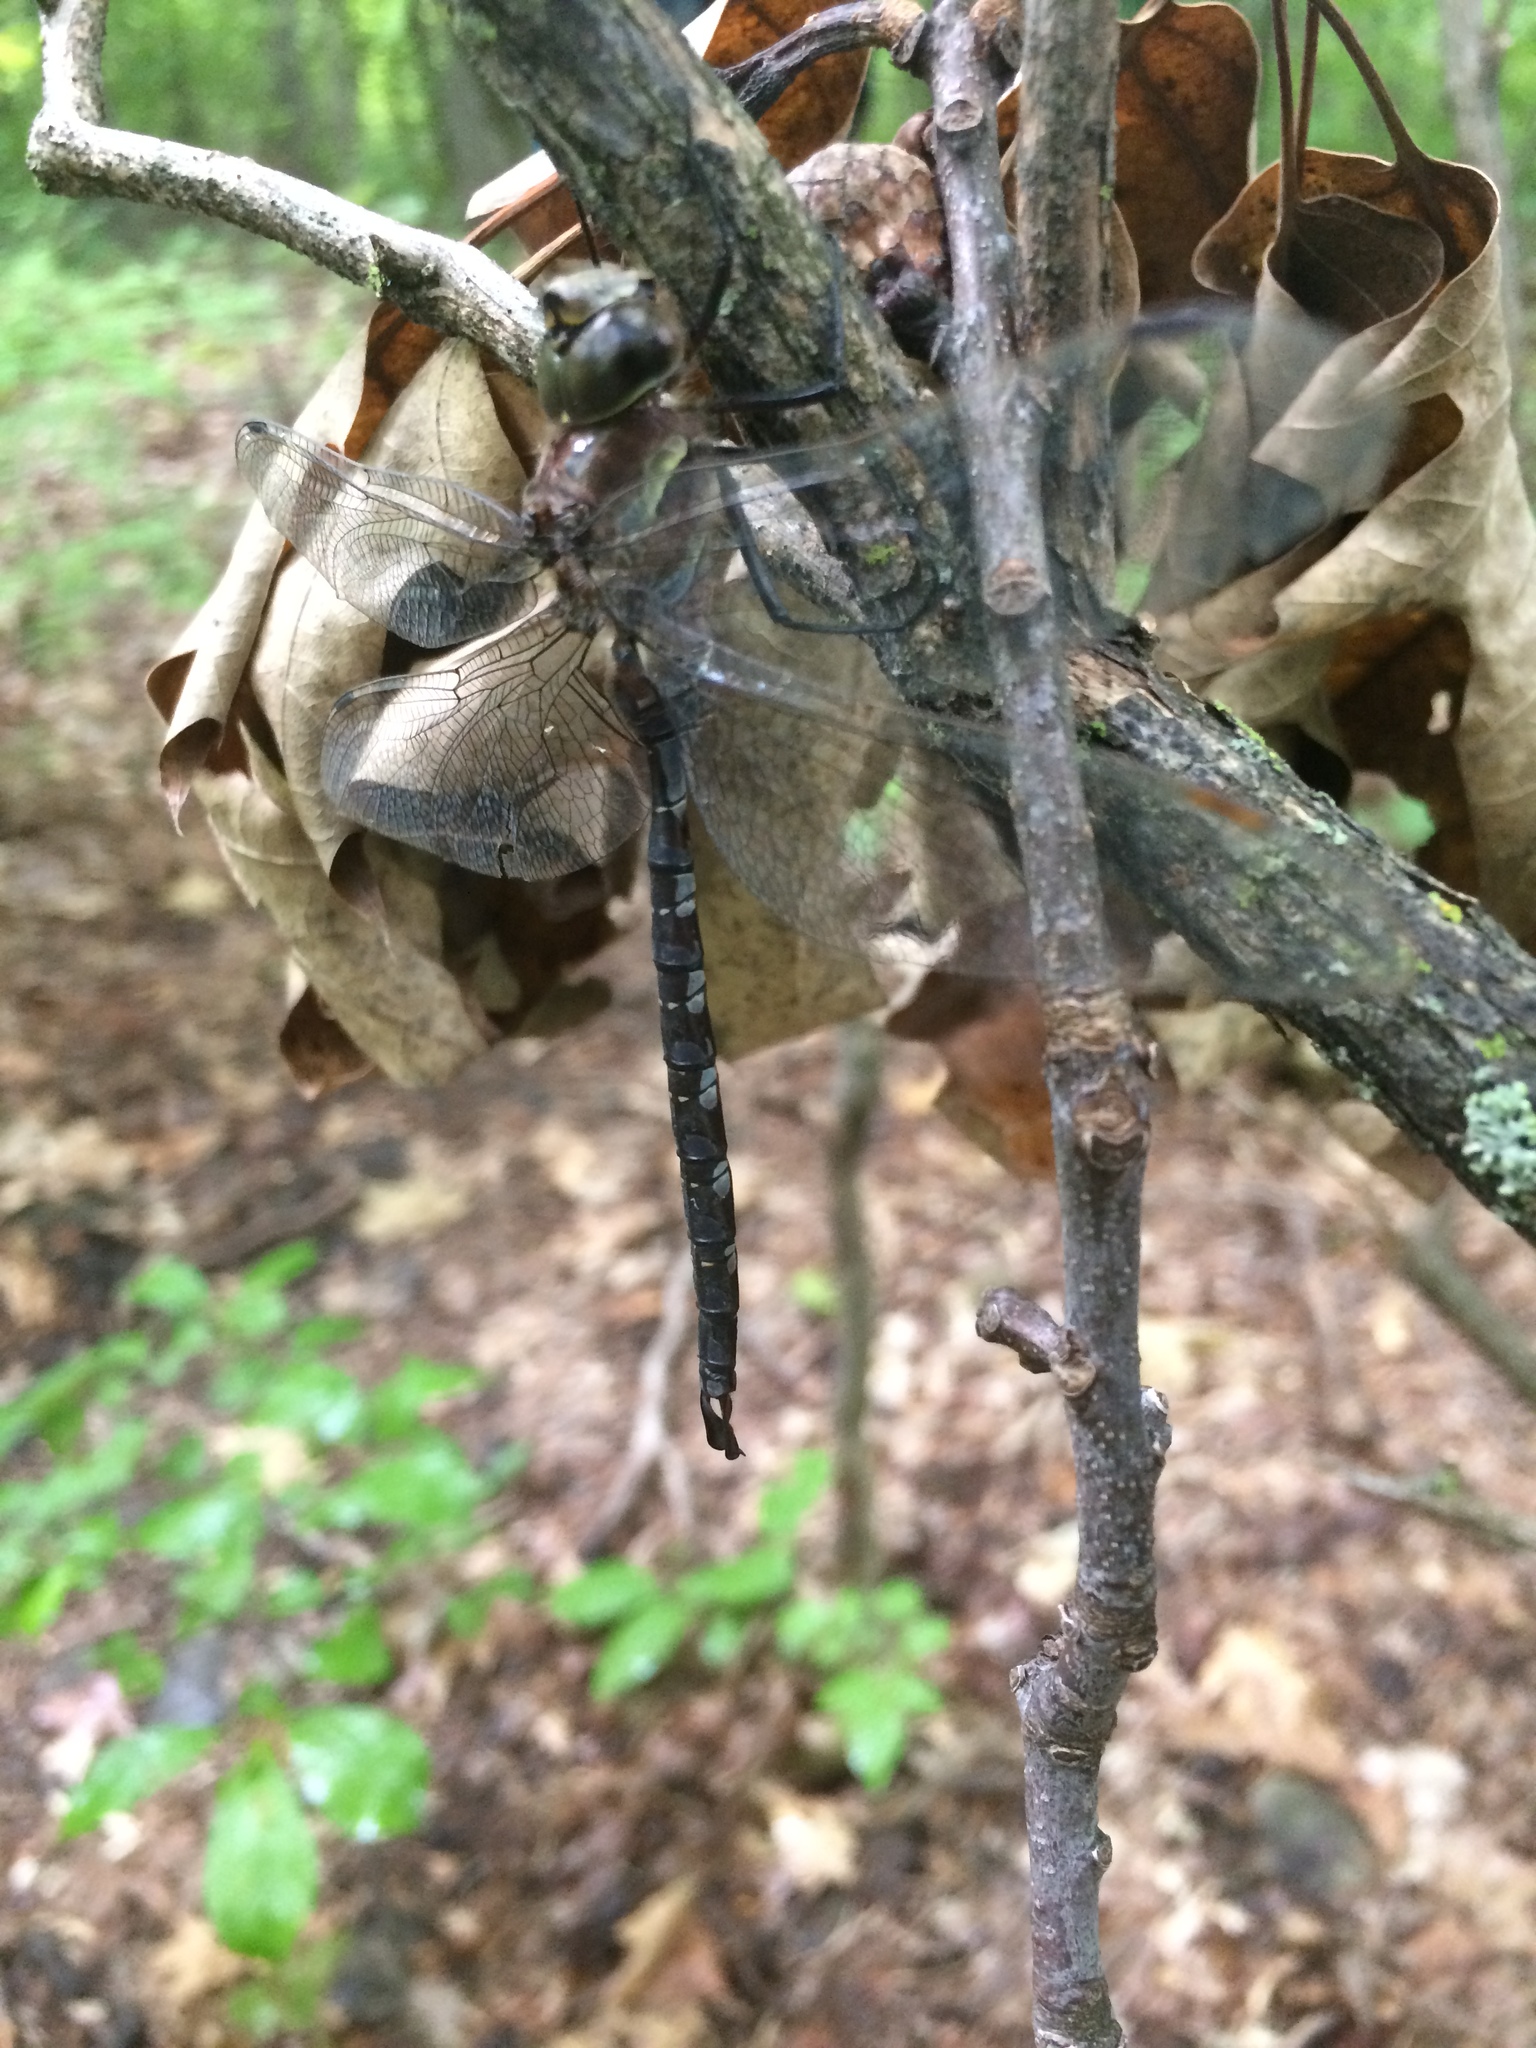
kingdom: Animalia
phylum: Arthropoda
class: Insecta
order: Odonata
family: Aeshnidae
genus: Aeshna
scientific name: Aeshna constricta
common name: Lance-tipped darner
